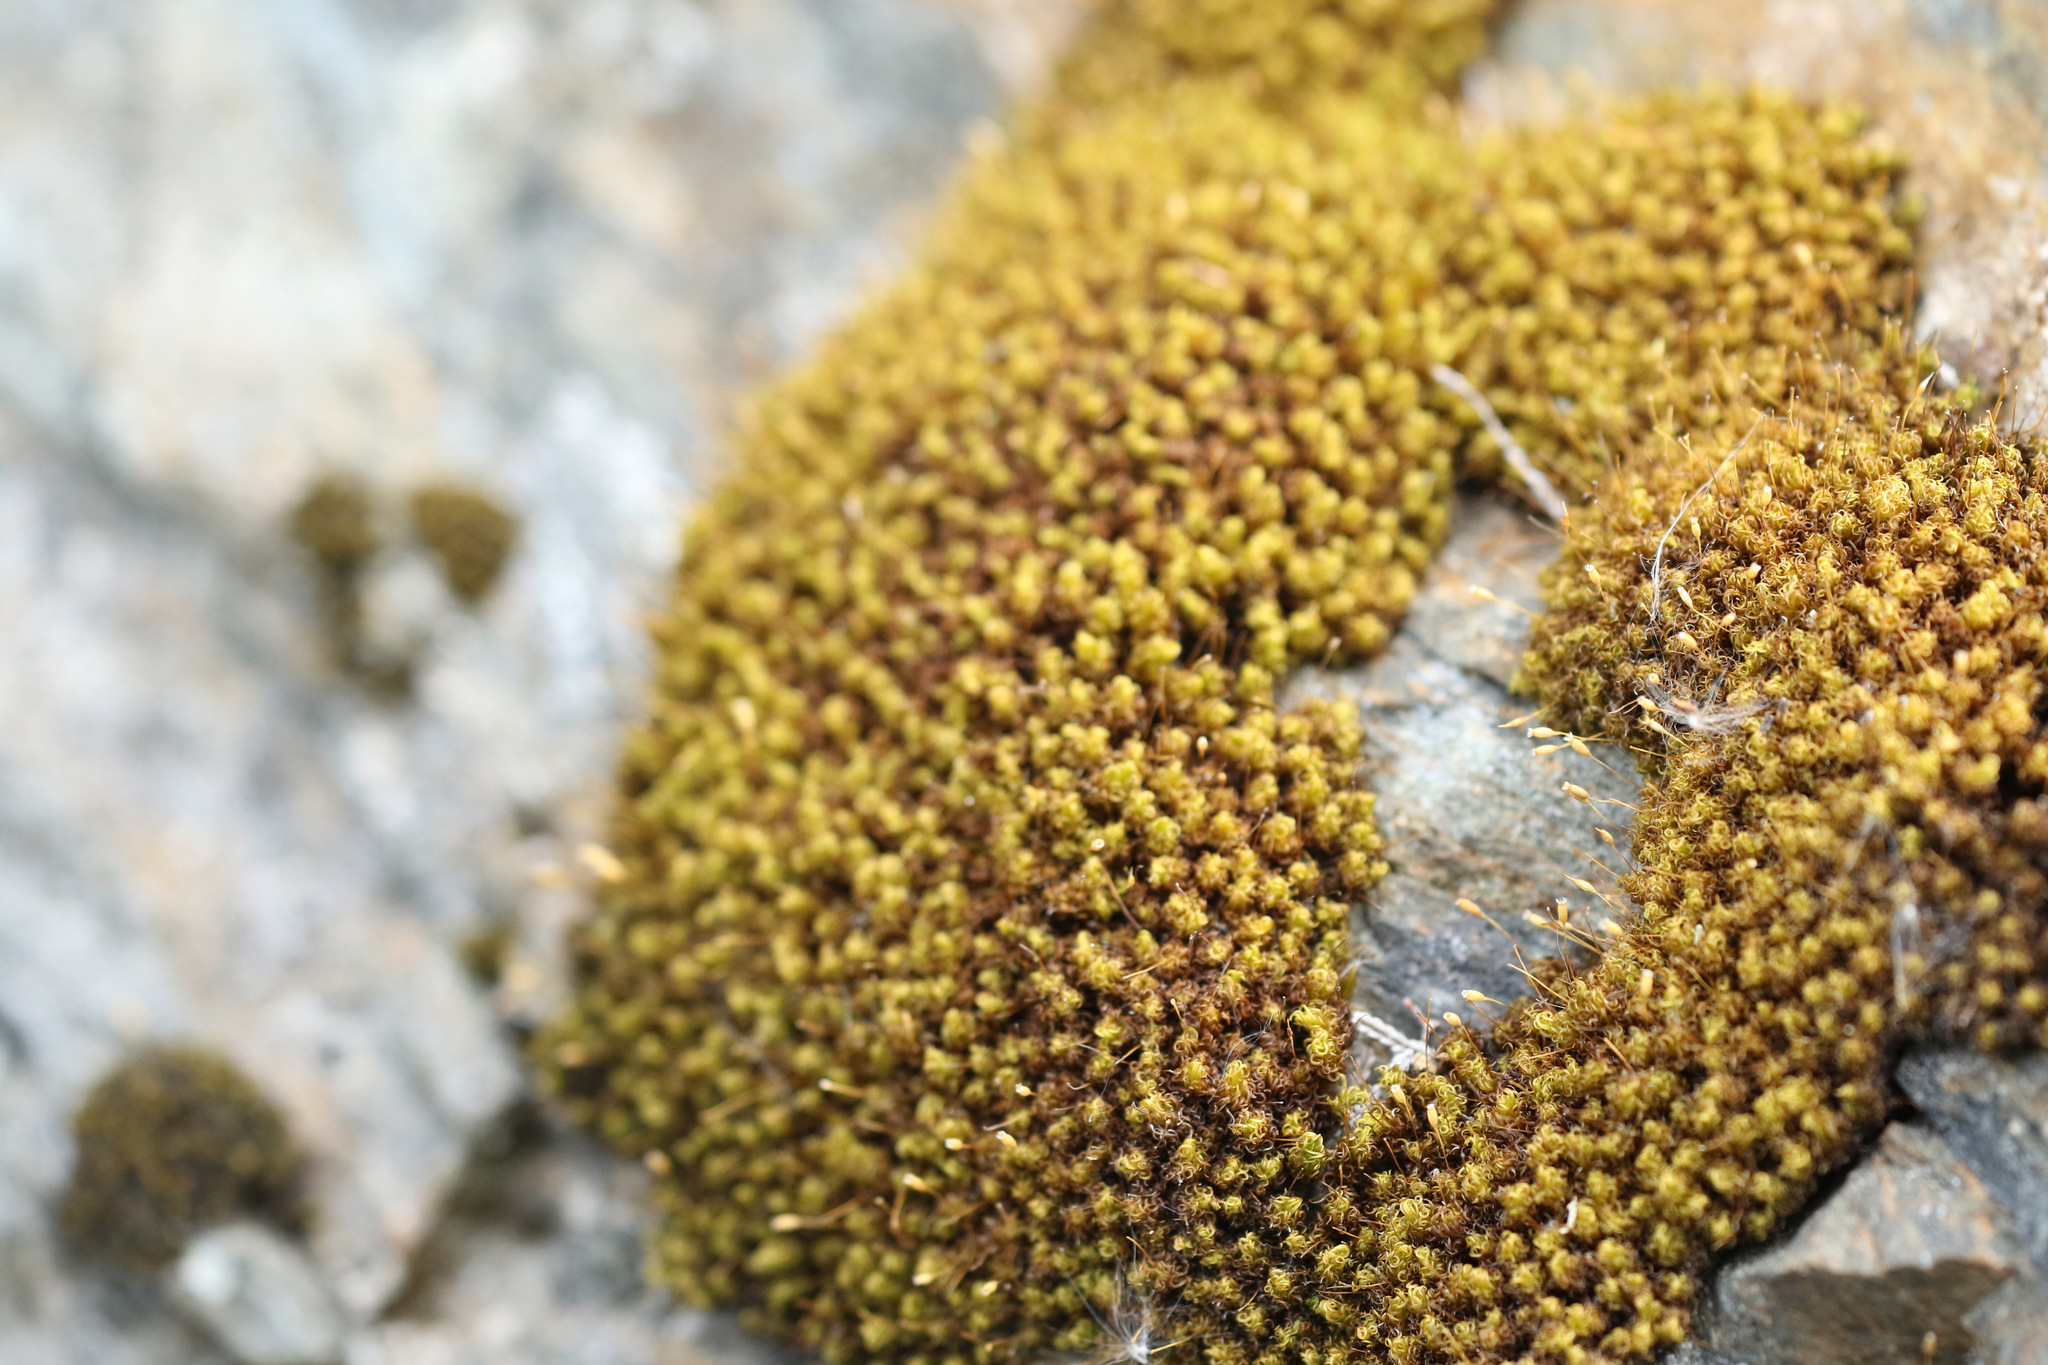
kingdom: Plantae
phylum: Bryophyta
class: Bryopsida
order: Grimmiales
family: Ptychomitriaceae
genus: Ptychomitrium
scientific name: Ptychomitrium polyphyllum
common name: Greater pincushion
